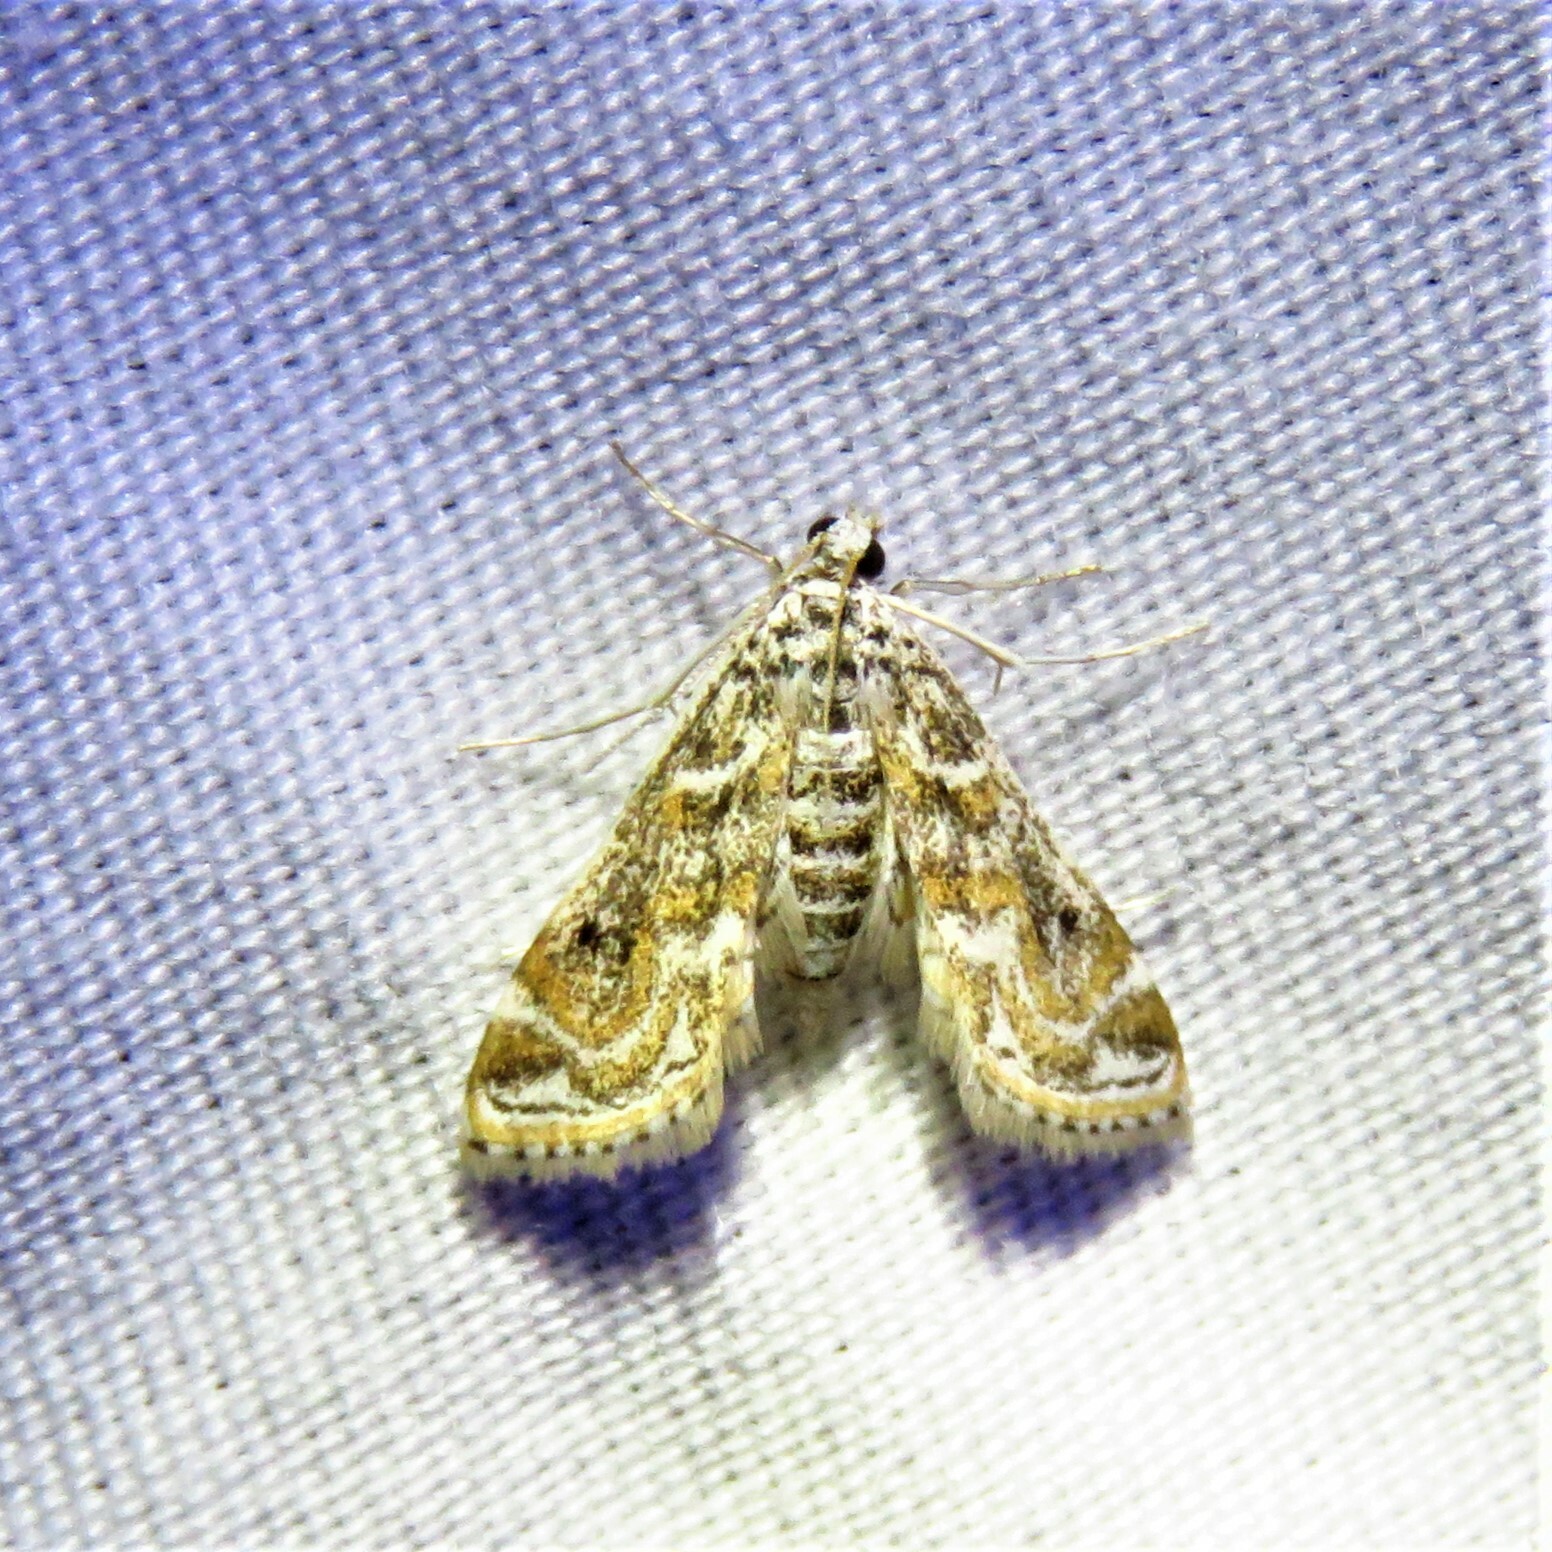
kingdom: Animalia
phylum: Arthropoda
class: Insecta
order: Lepidoptera
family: Crambidae
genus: Parapoynx
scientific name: Parapoynx diminutalis
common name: Hydrilla leafcutter
